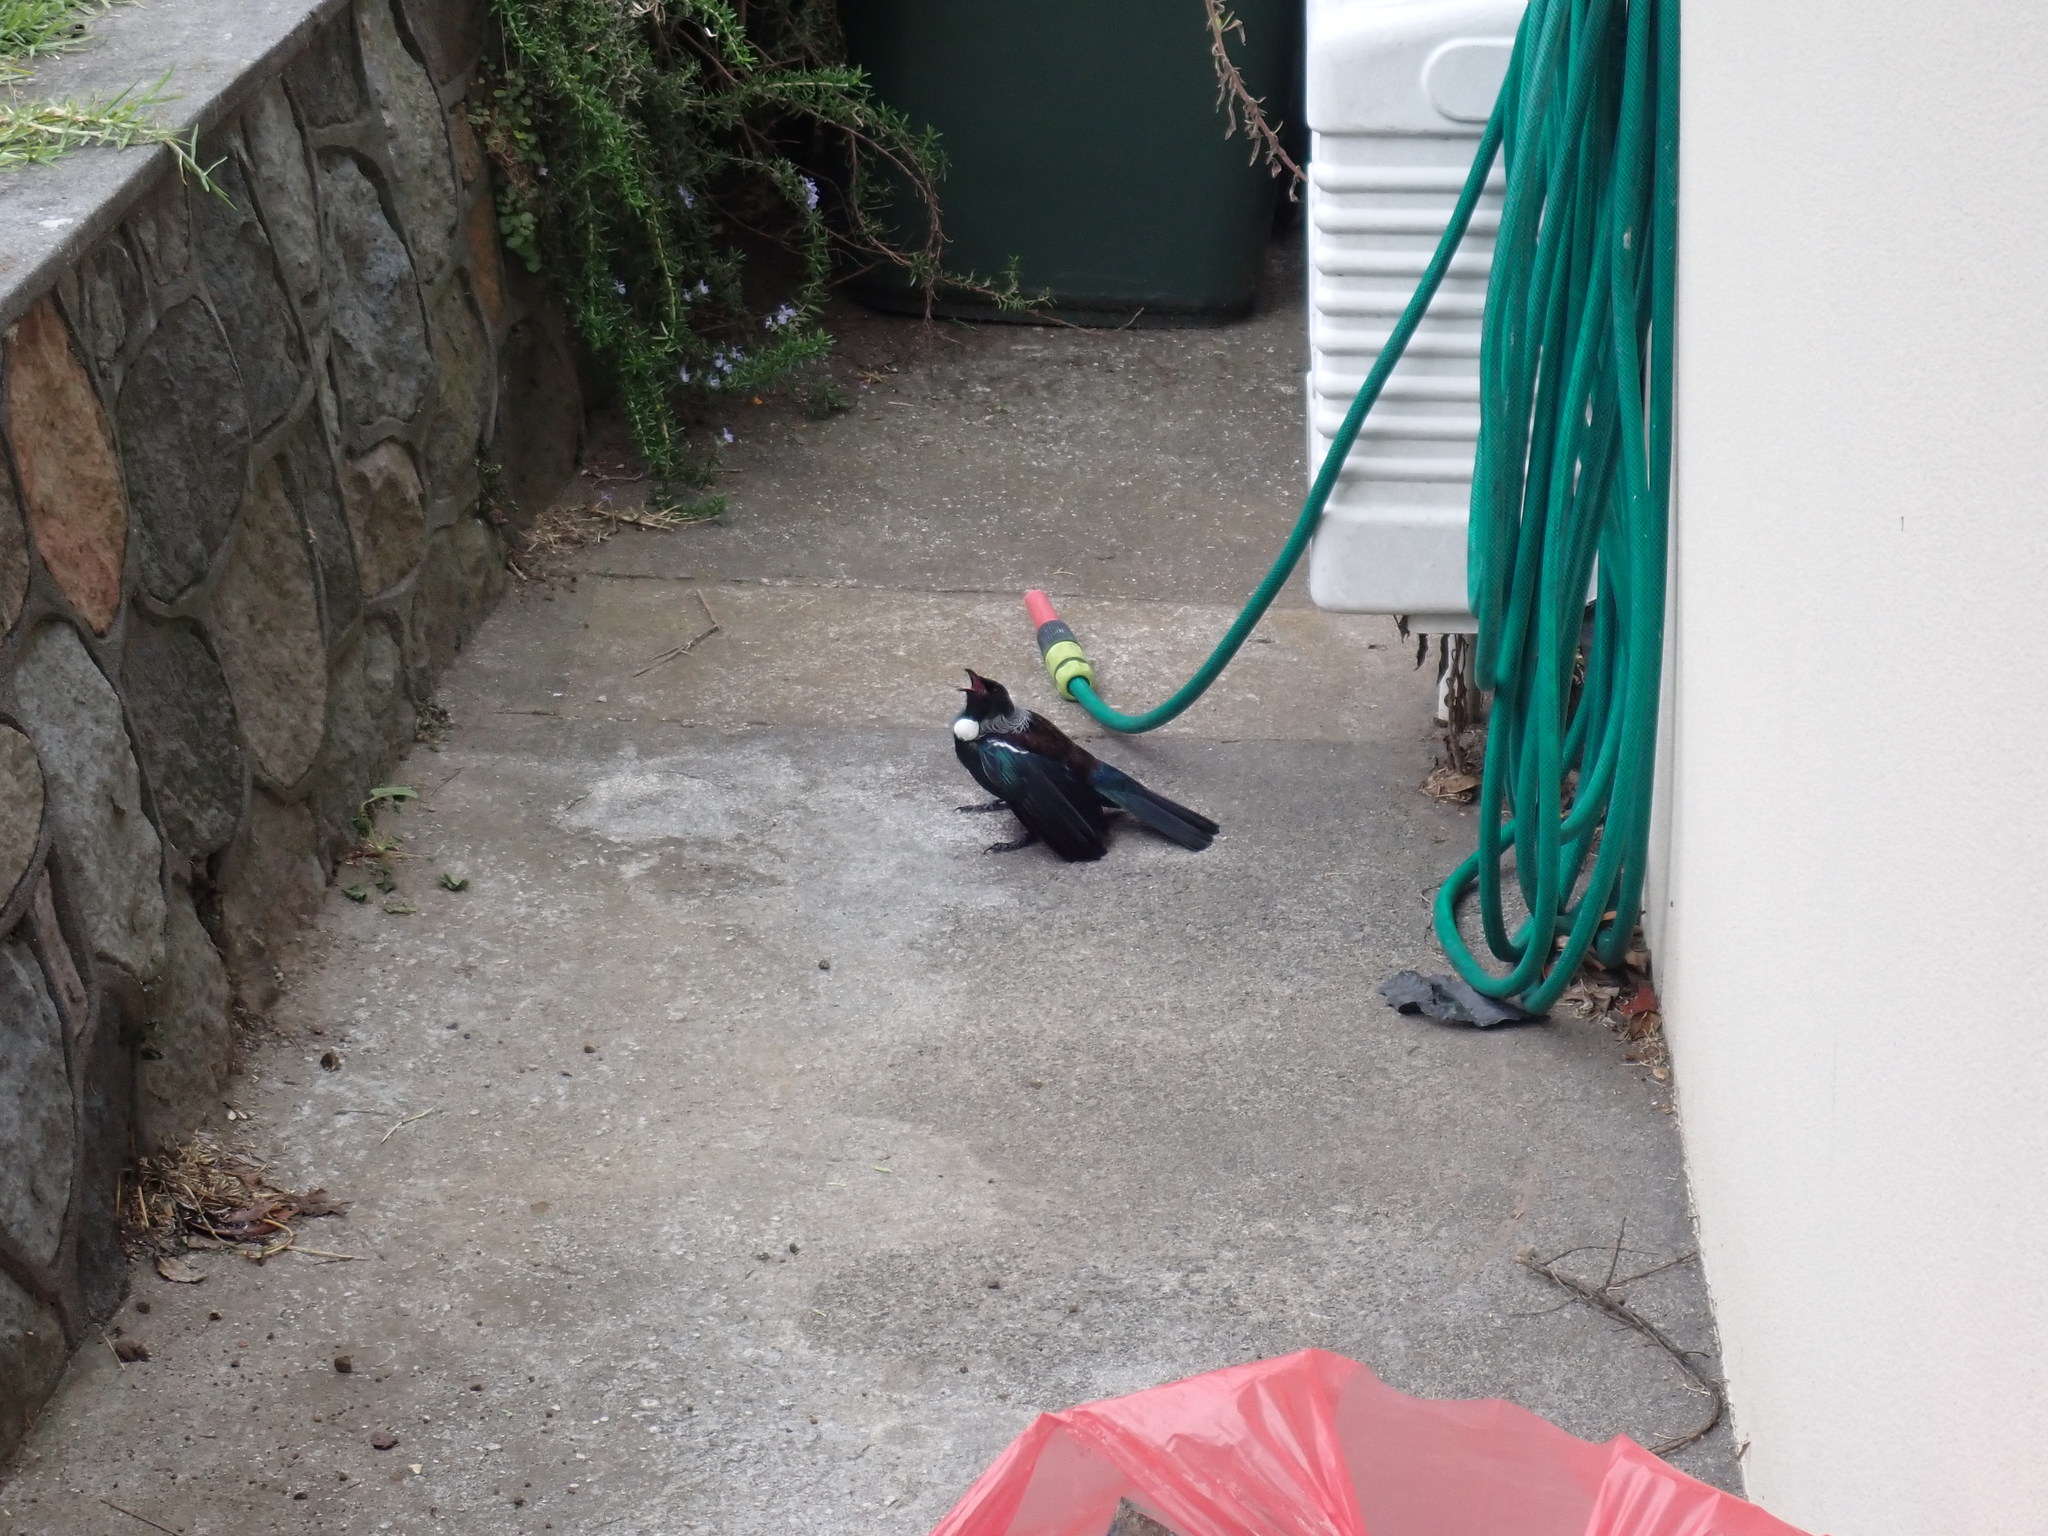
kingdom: Animalia
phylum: Chordata
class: Aves
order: Passeriformes
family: Meliphagidae
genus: Prosthemadera
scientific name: Prosthemadera novaeseelandiae
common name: Tui
